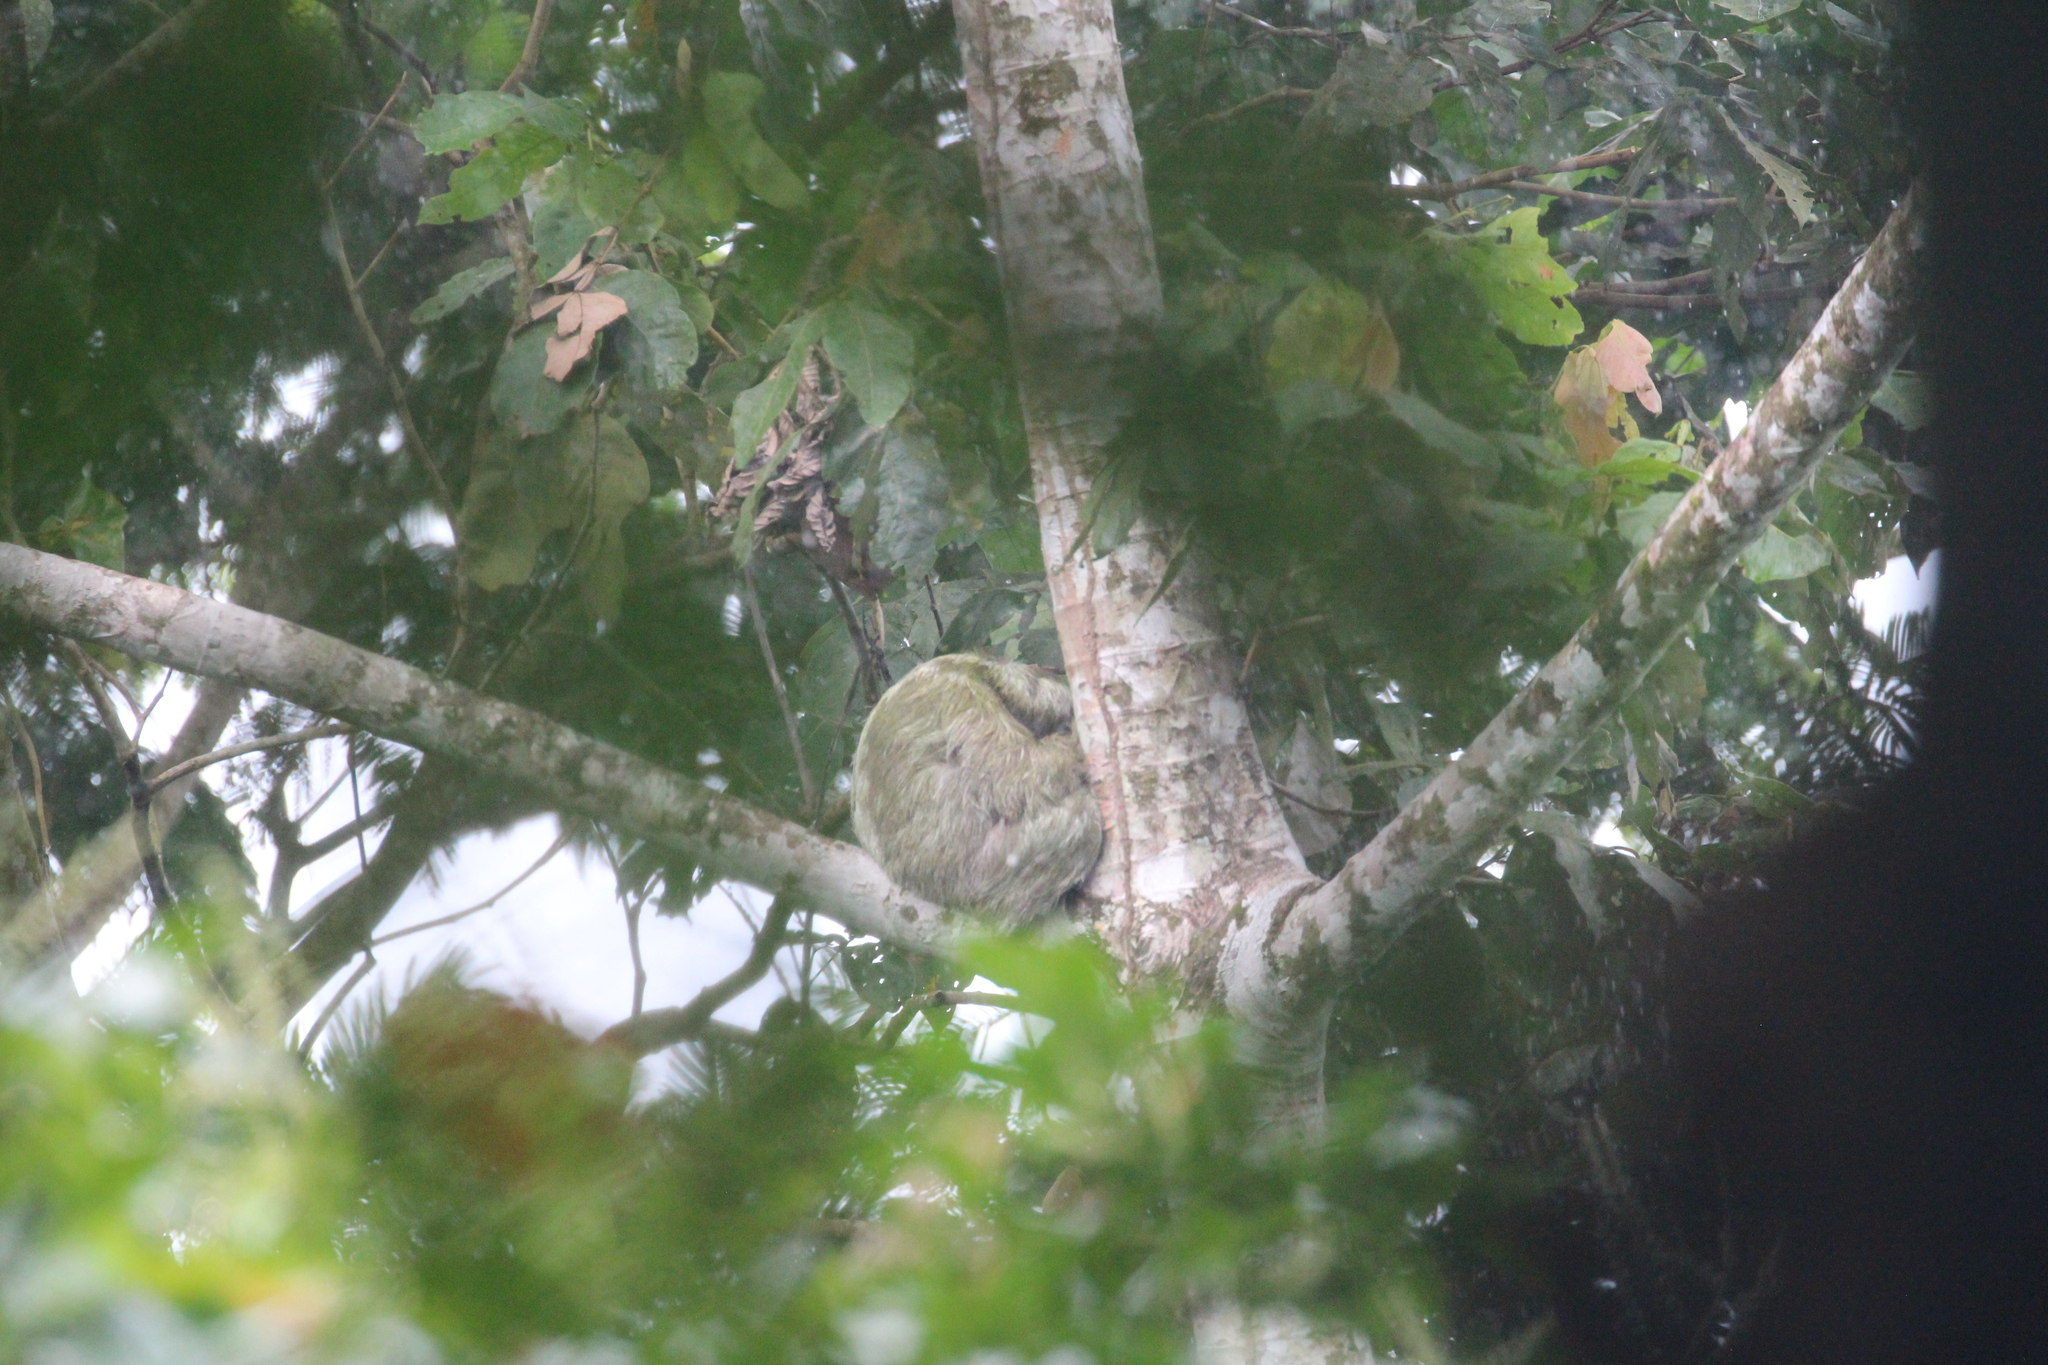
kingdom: Animalia
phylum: Chordata
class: Mammalia
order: Pilosa
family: Bradypodidae
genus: Bradypus
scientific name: Bradypus variegatus
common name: Brown-throated three-toed sloth
